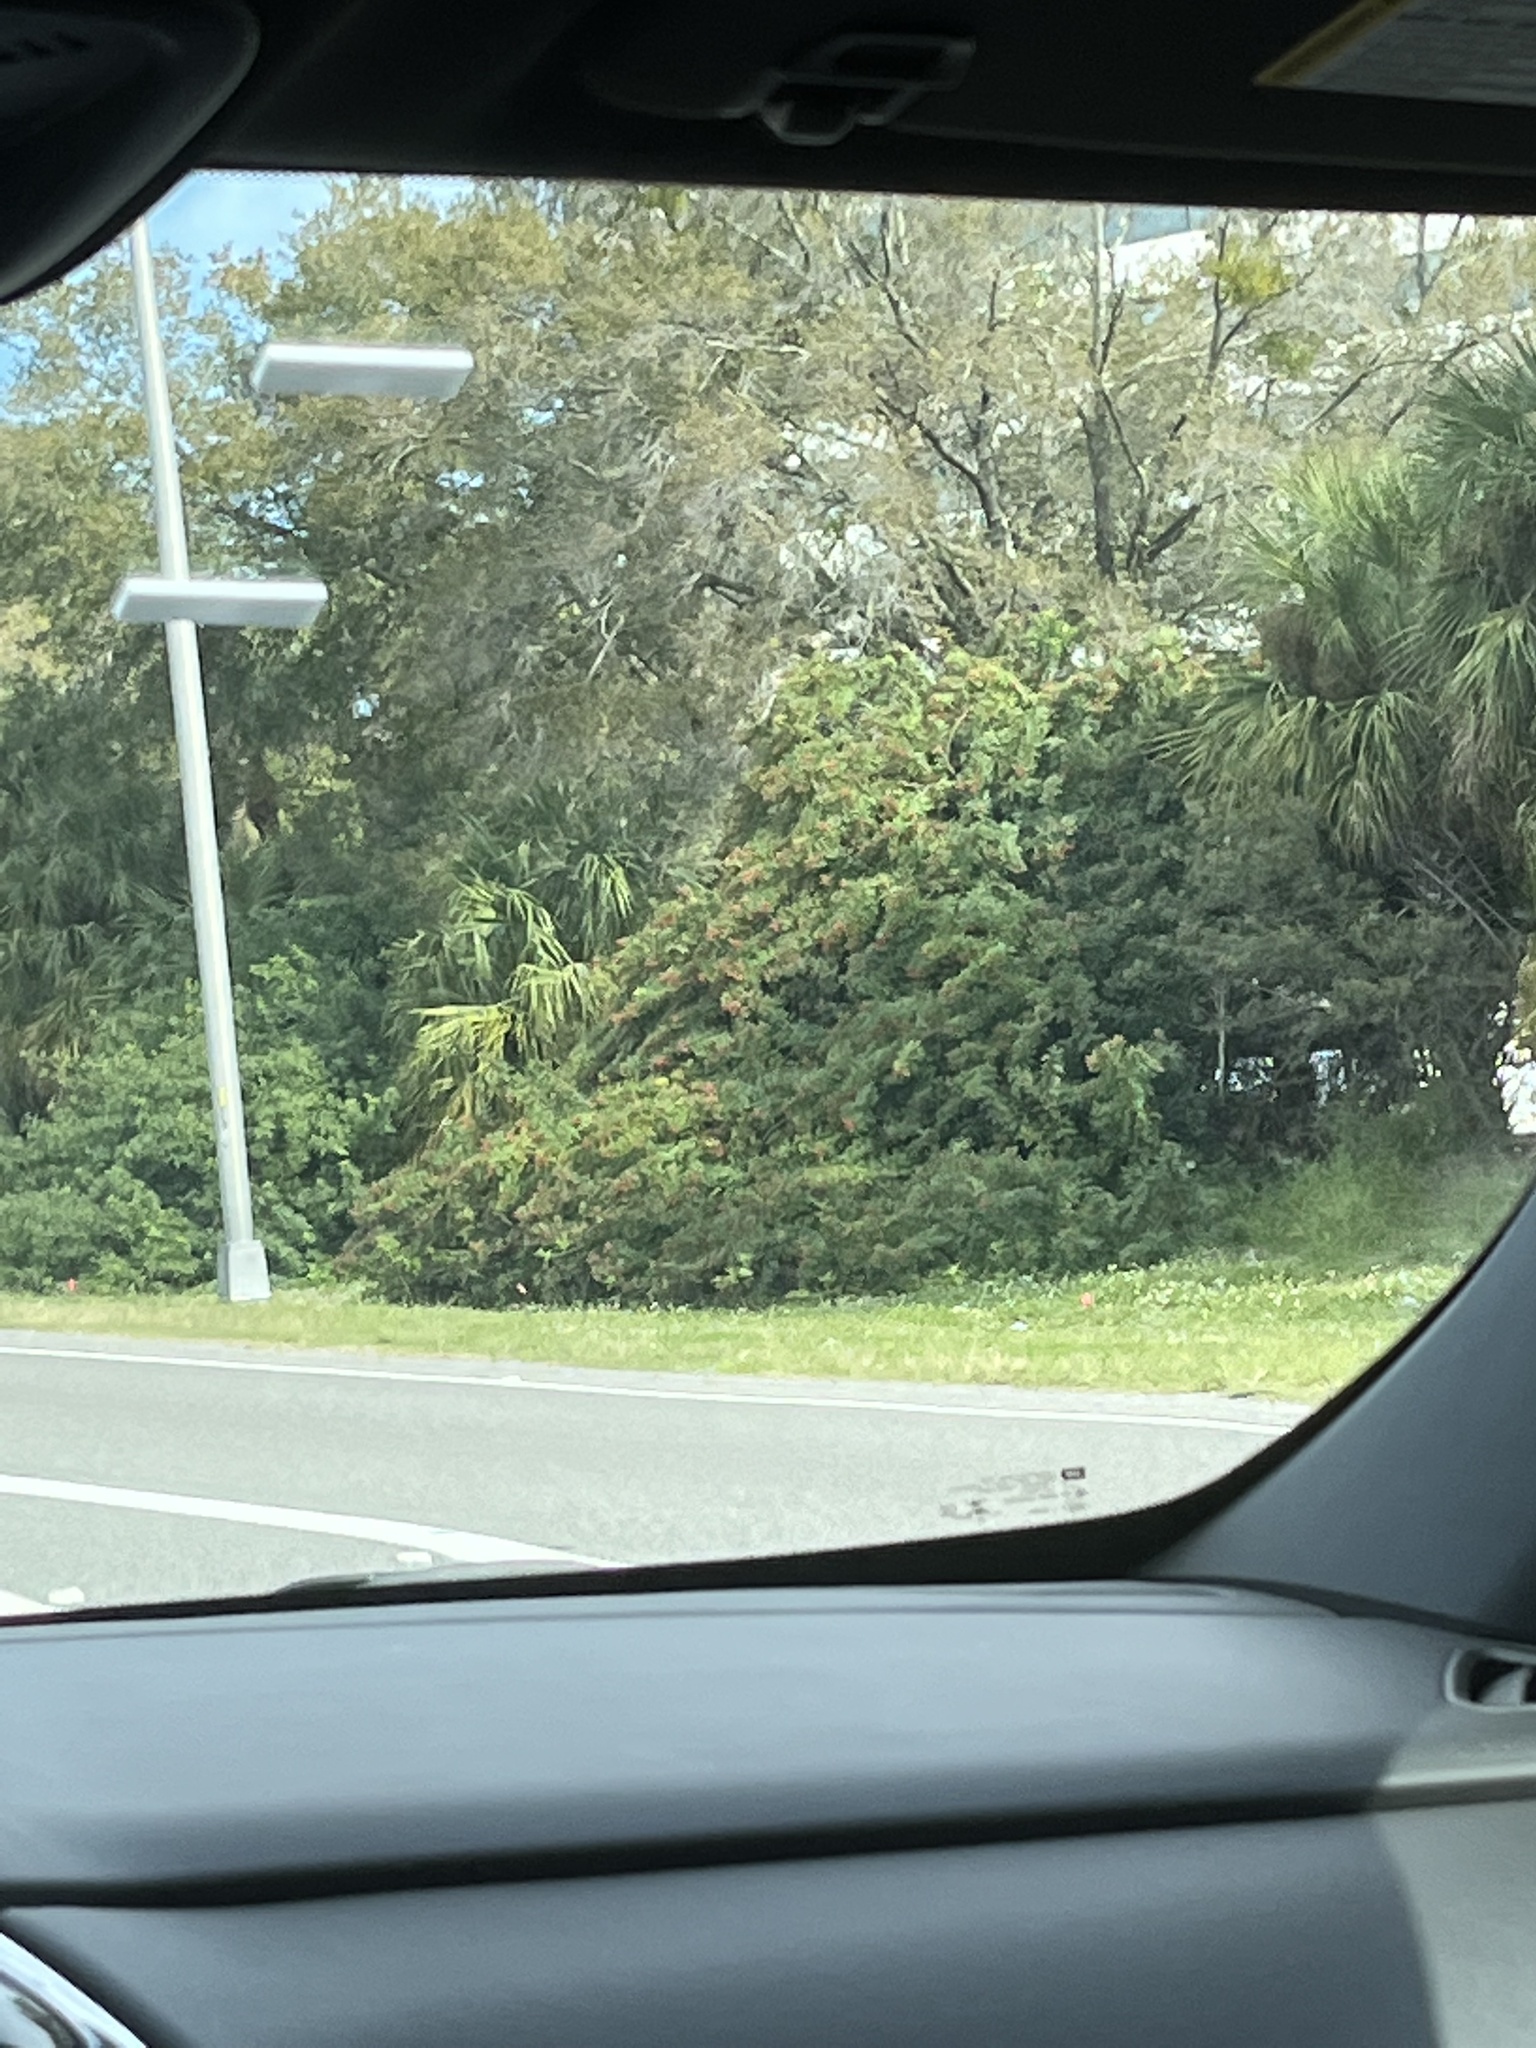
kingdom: Plantae
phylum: Tracheophyta
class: Magnoliopsida
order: Sapindales
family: Anacardiaceae
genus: Schinus
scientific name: Schinus terebinthifolia
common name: Brazilian peppertree
